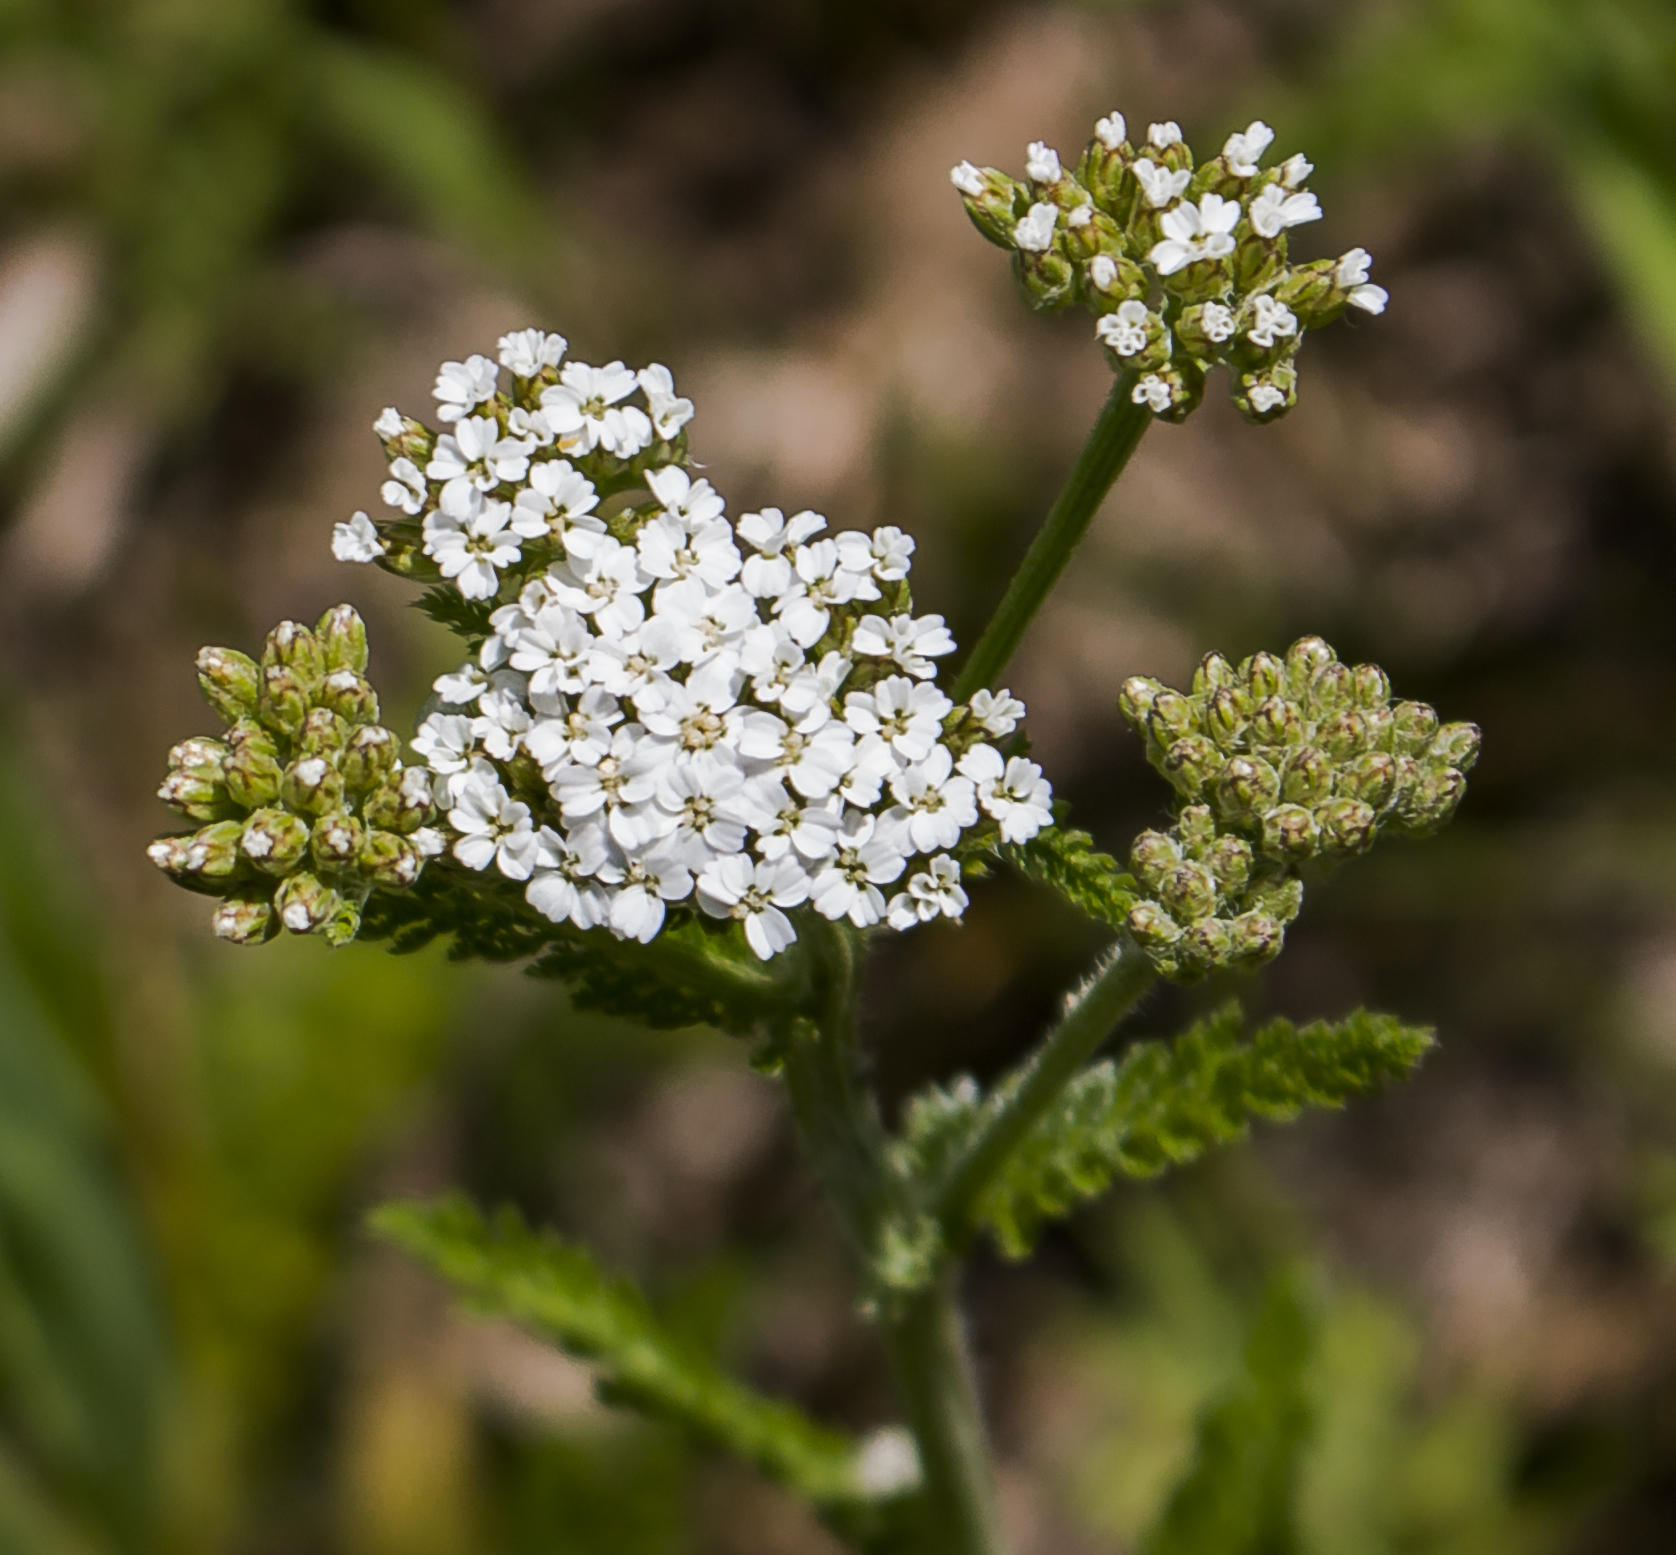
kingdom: Plantae
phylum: Tracheophyta
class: Magnoliopsida
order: Asterales
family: Asteraceae
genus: Achillea
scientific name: Achillea millefolium
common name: Yarrow
